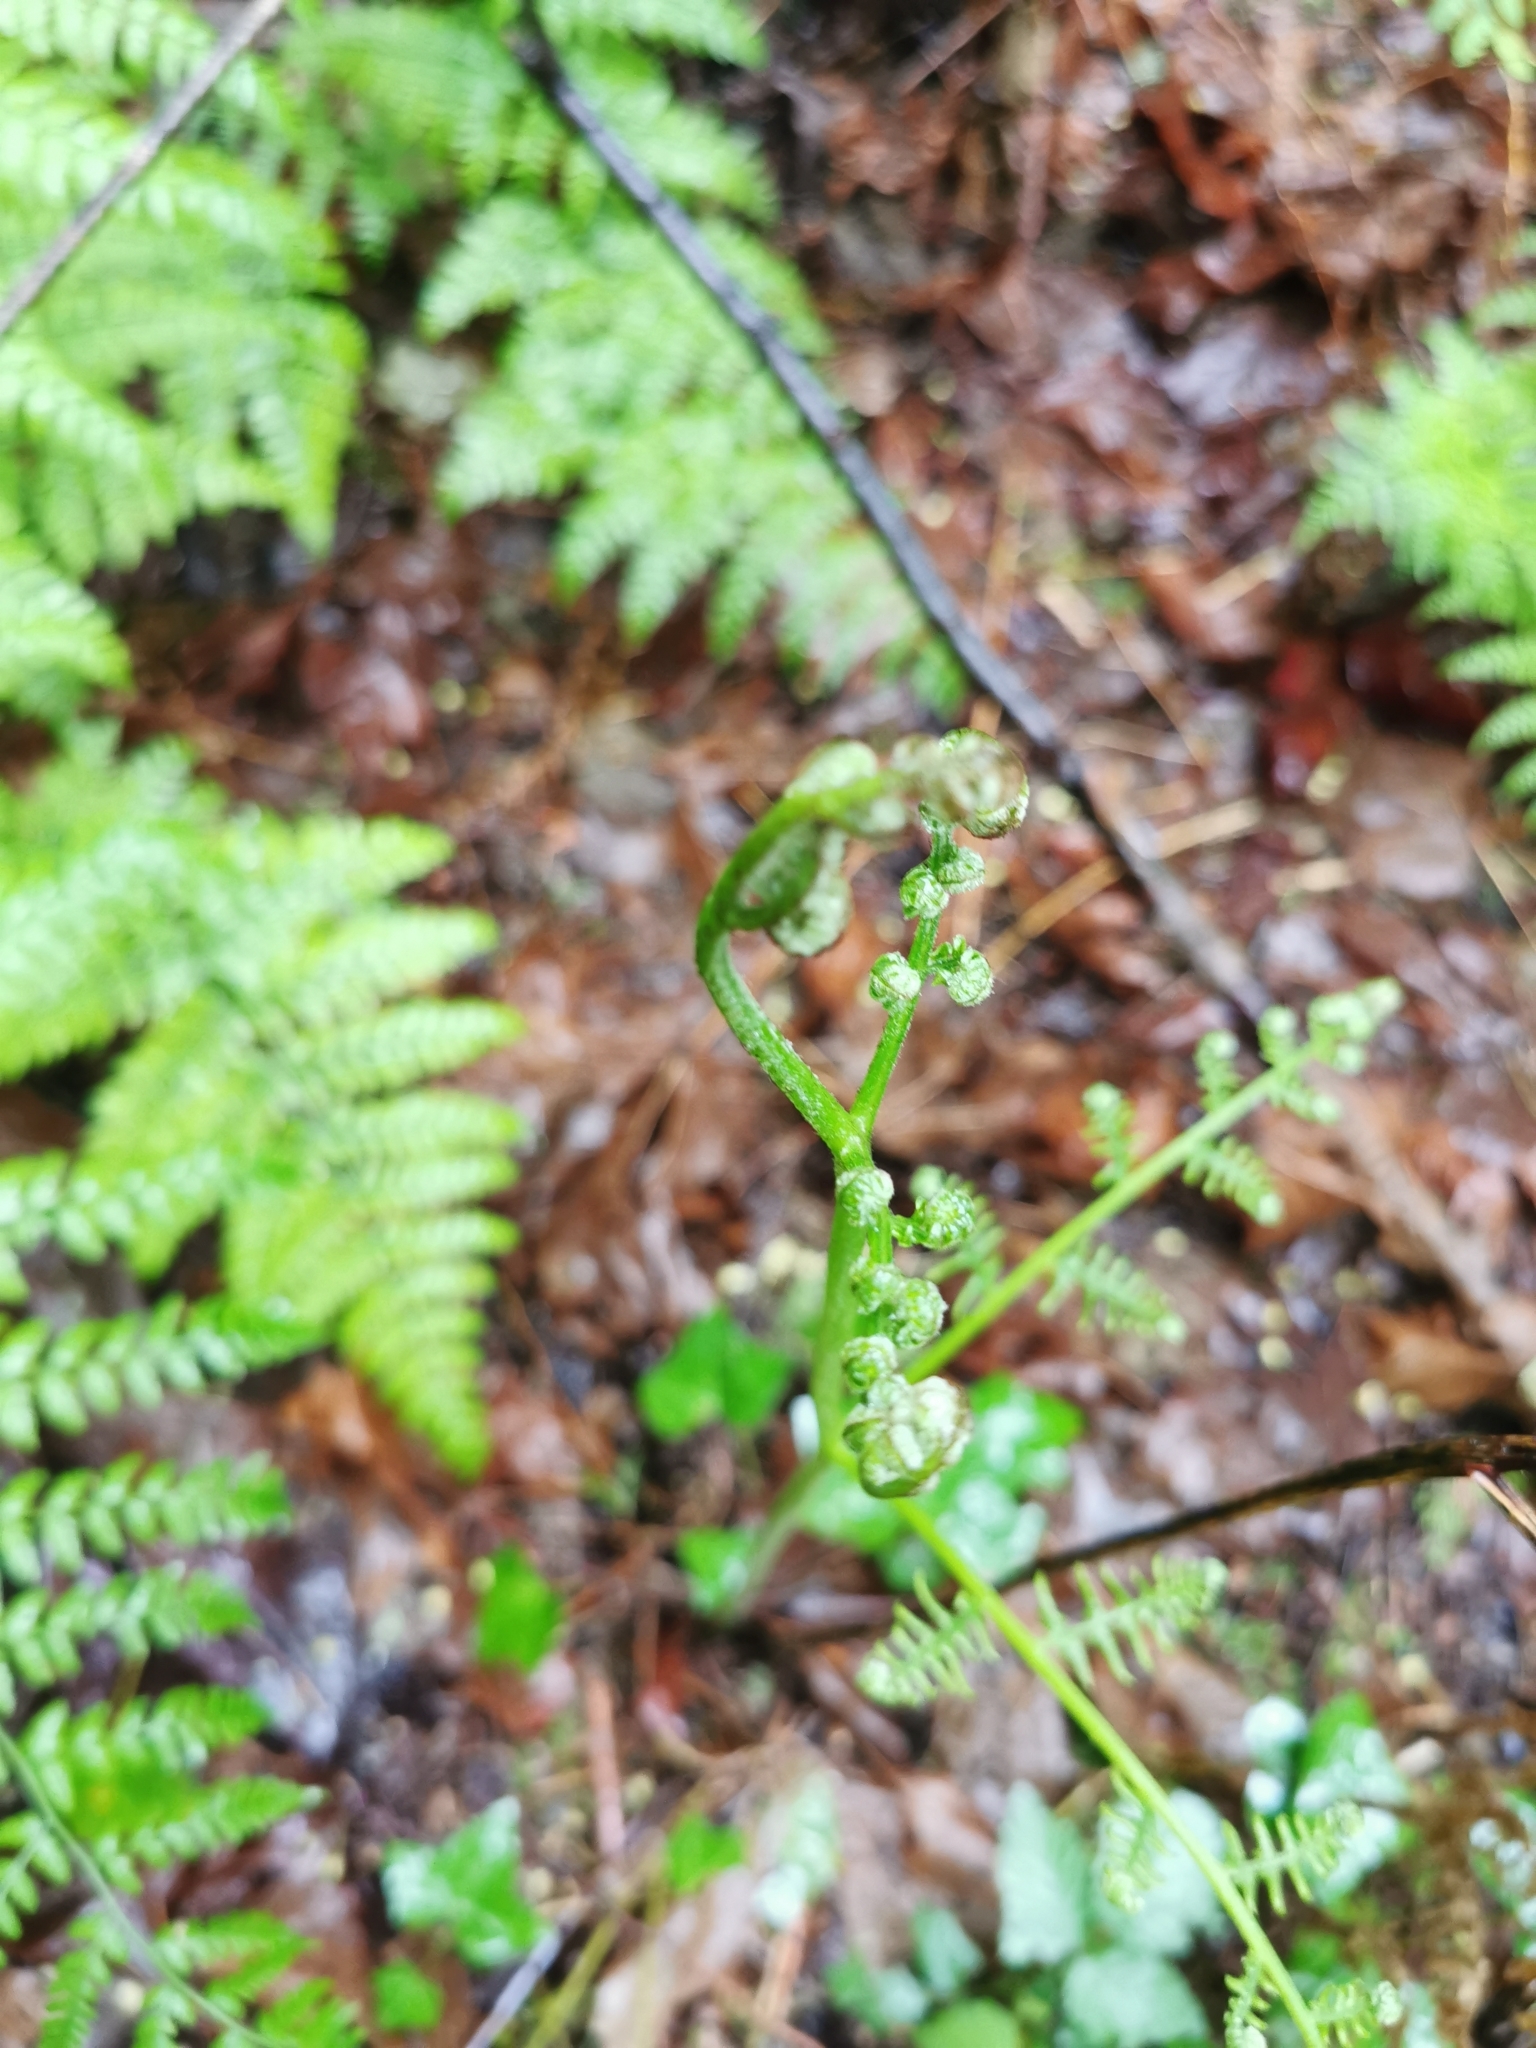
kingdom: Plantae
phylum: Tracheophyta
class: Polypodiopsida
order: Polypodiales
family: Dennstaedtiaceae
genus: Pteridium
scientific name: Pteridium aquilinum
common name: Bracken
